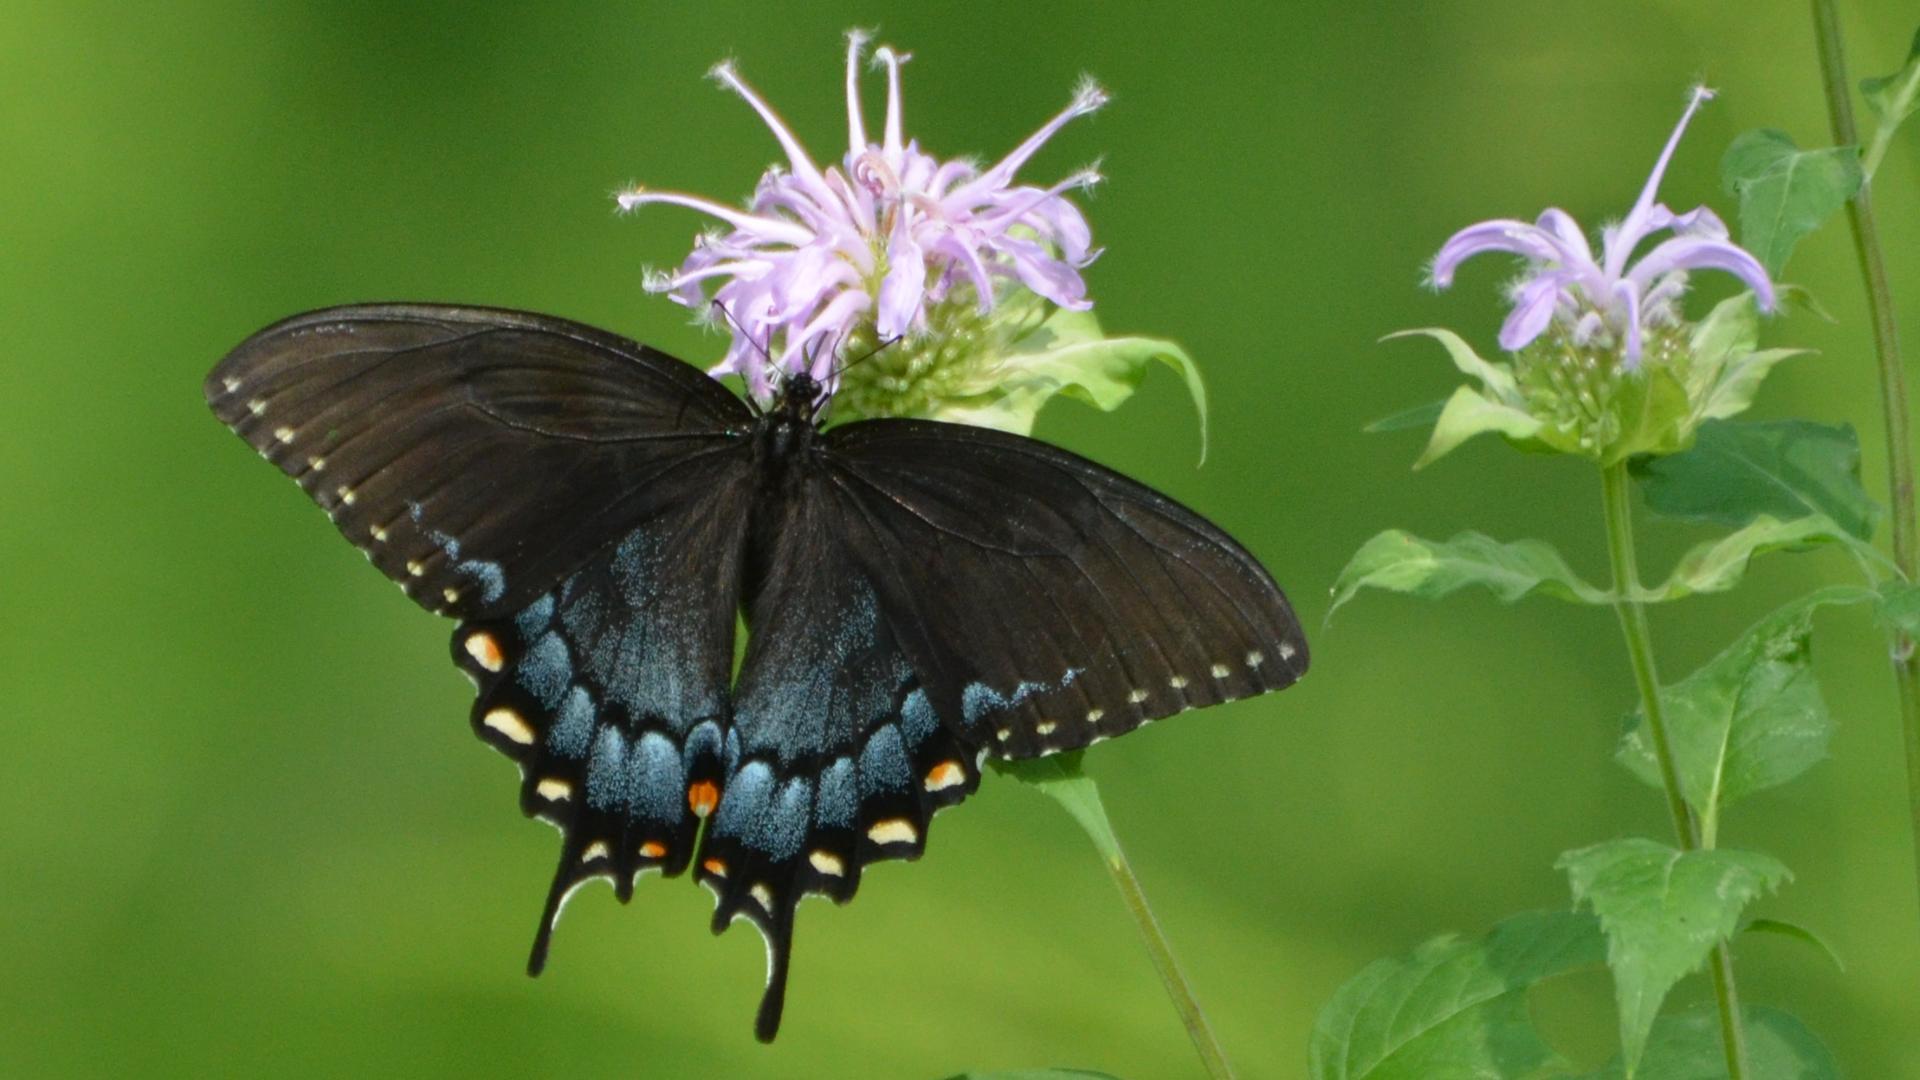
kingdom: Animalia
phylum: Arthropoda
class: Insecta
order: Lepidoptera
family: Papilionidae
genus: Papilio
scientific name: Papilio glaucus
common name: Tiger swallowtail
